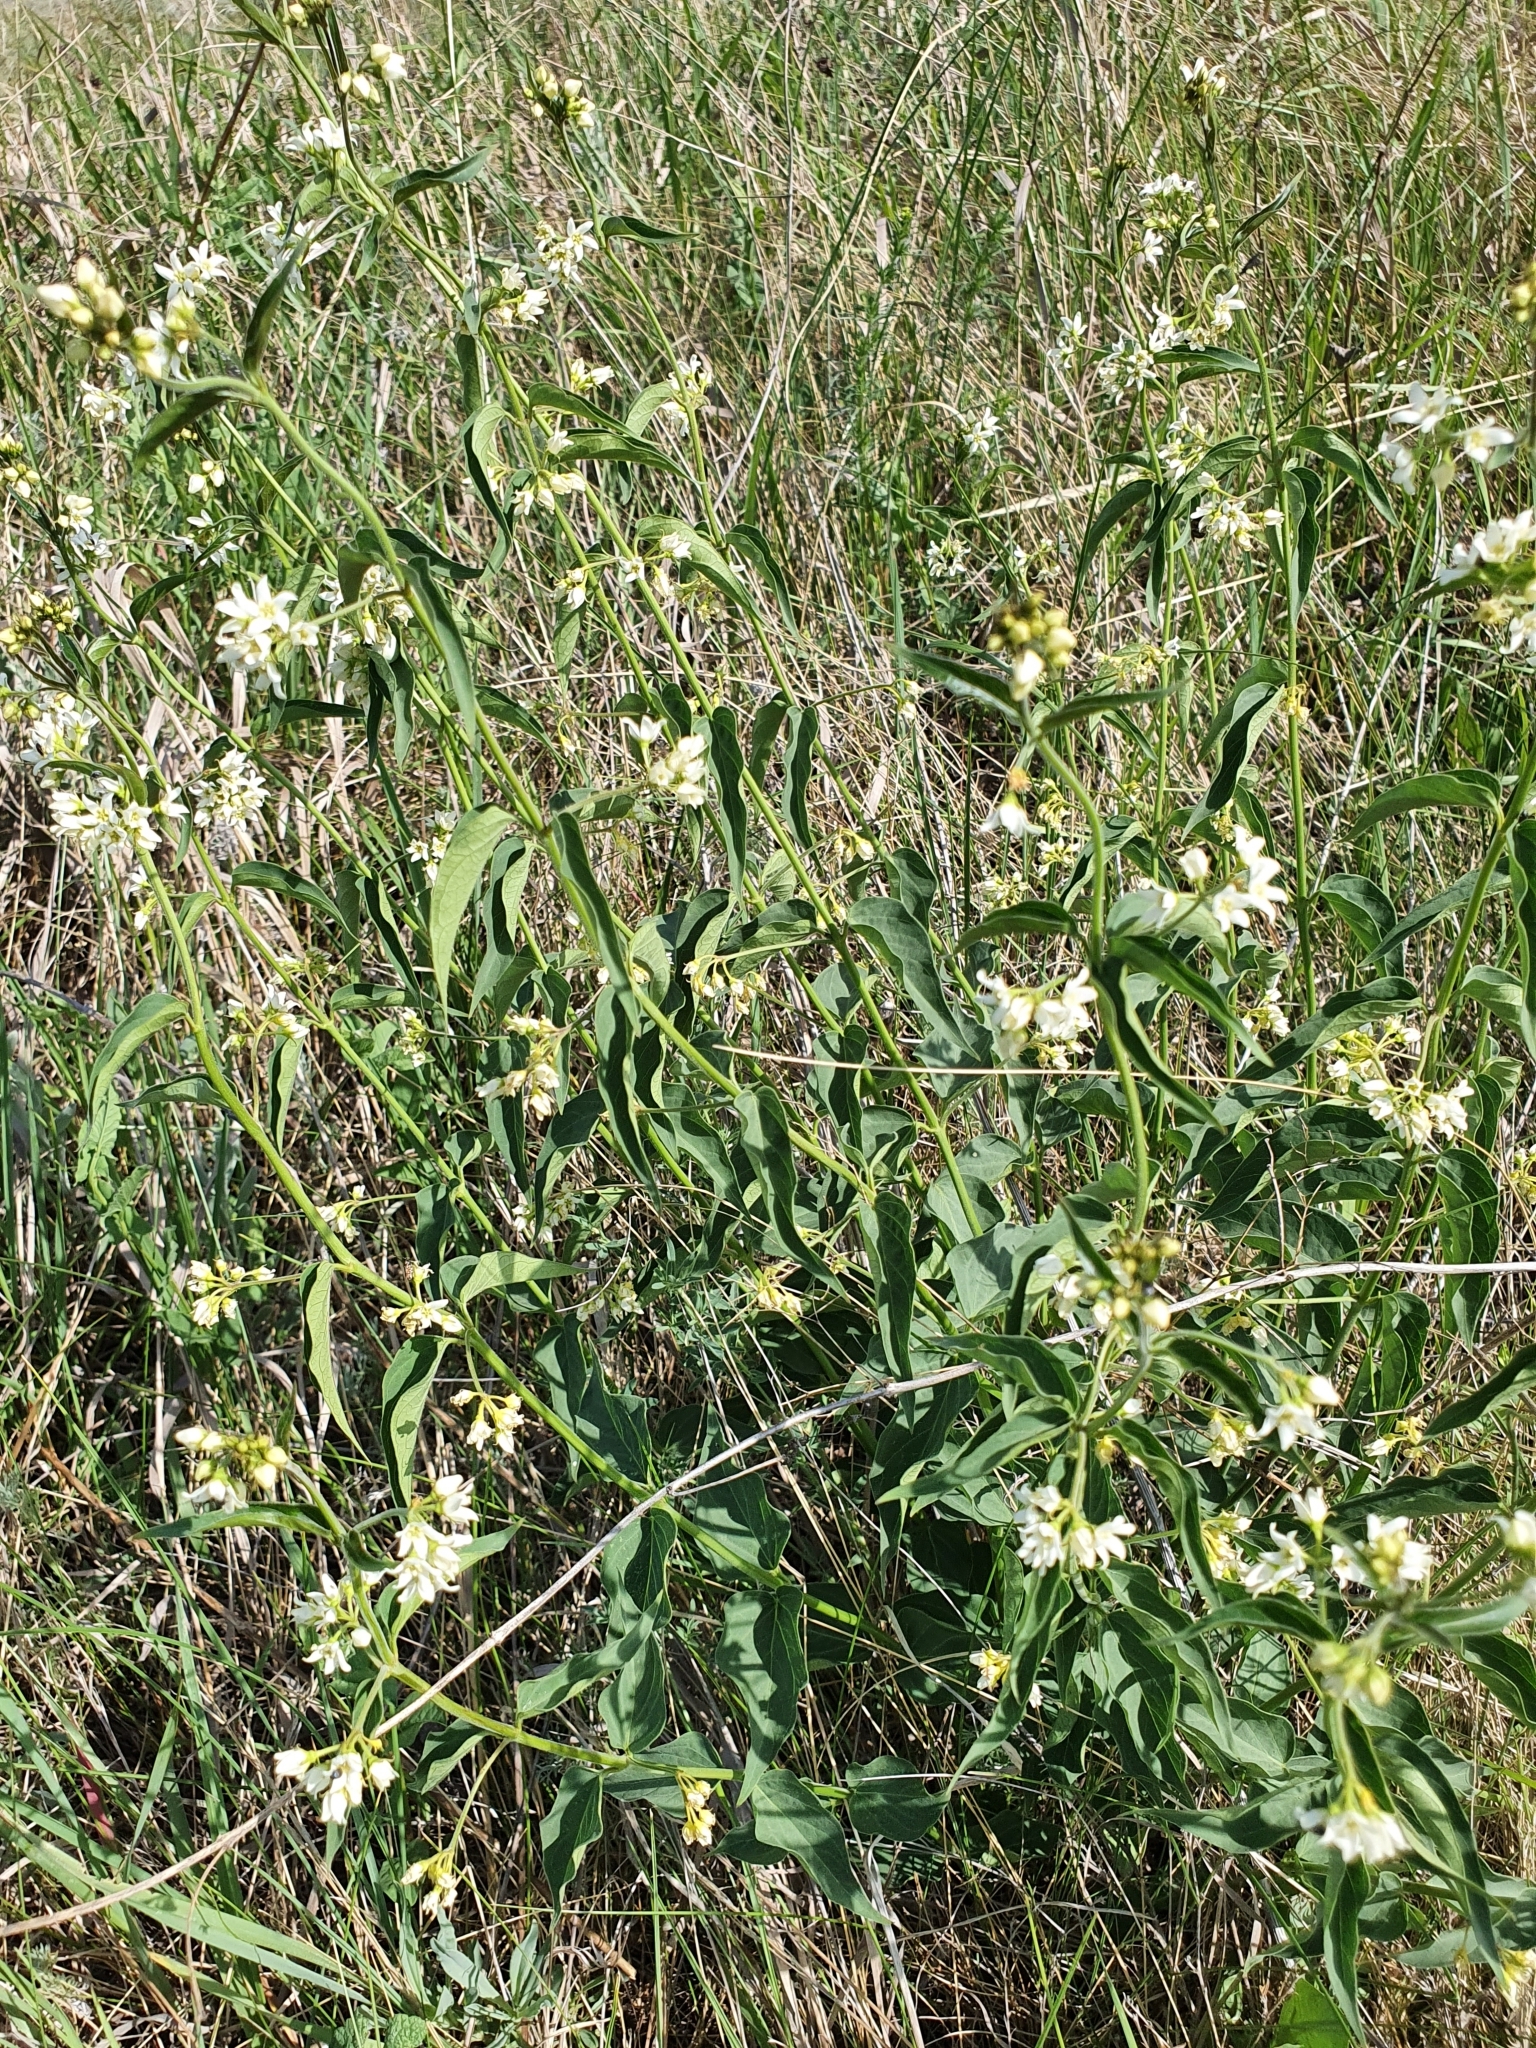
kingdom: Plantae
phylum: Tracheophyta
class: Magnoliopsida
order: Gentianales
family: Apocynaceae
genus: Vincetoxicum
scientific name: Vincetoxicum hirundinaria
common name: White swallowwort
